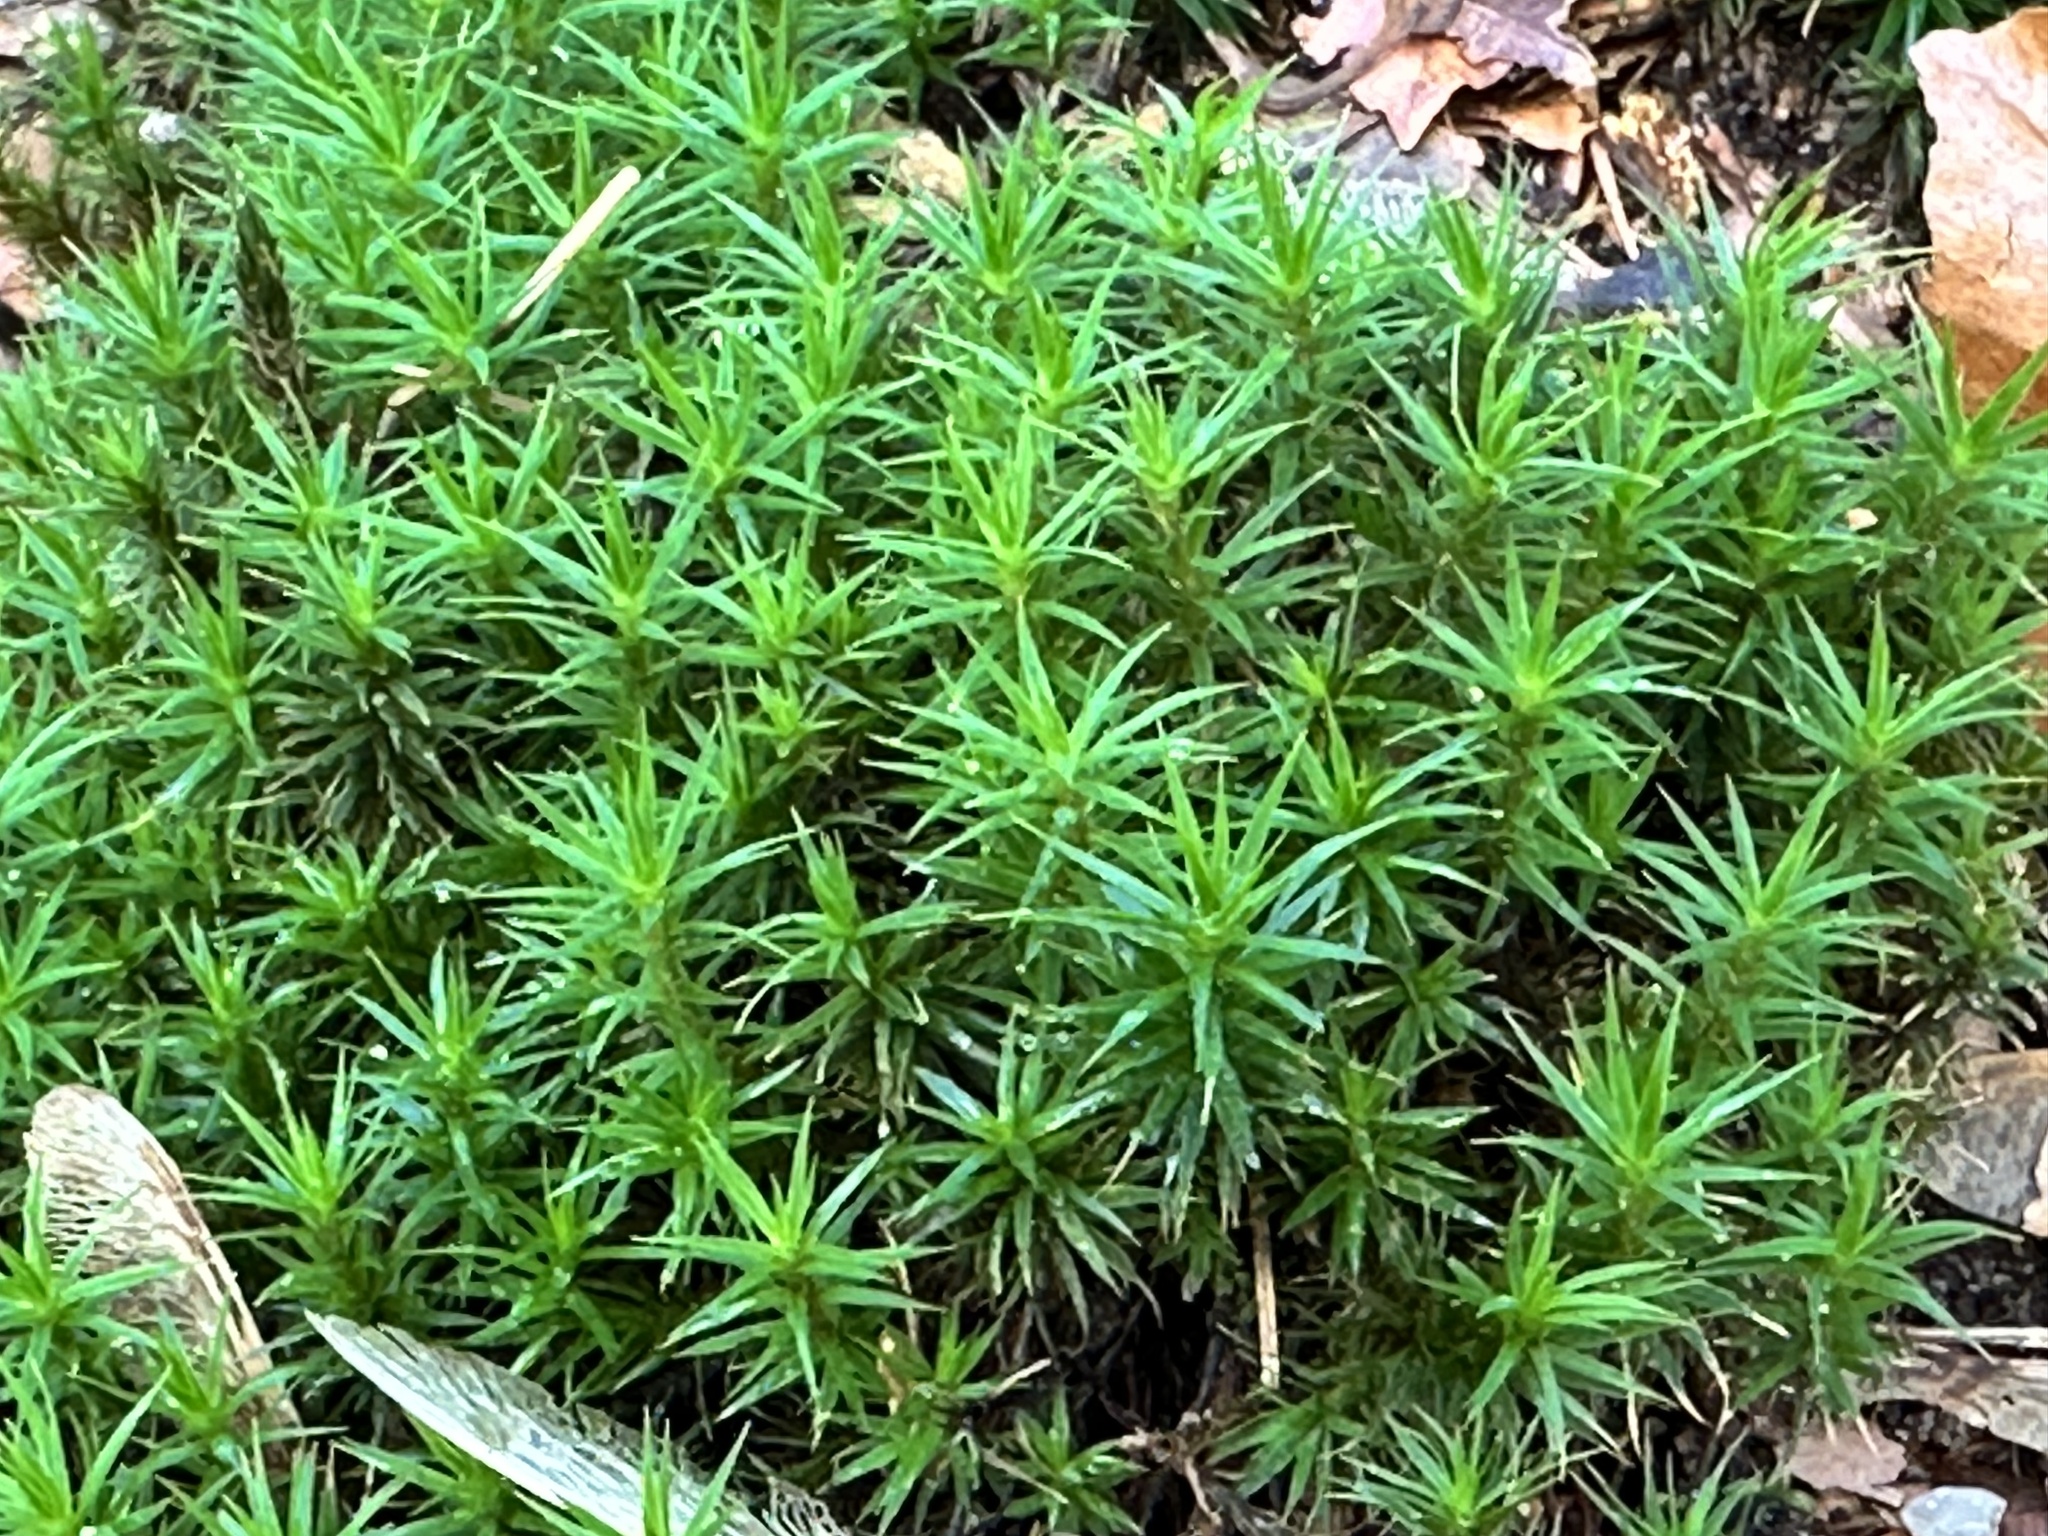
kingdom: Plantae
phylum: Bryophyta
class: Polytrichopsida
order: Polytrichales
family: Polytrichaceae
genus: Polytrichum
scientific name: Polytrichum formosum
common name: Bank haircap moss
